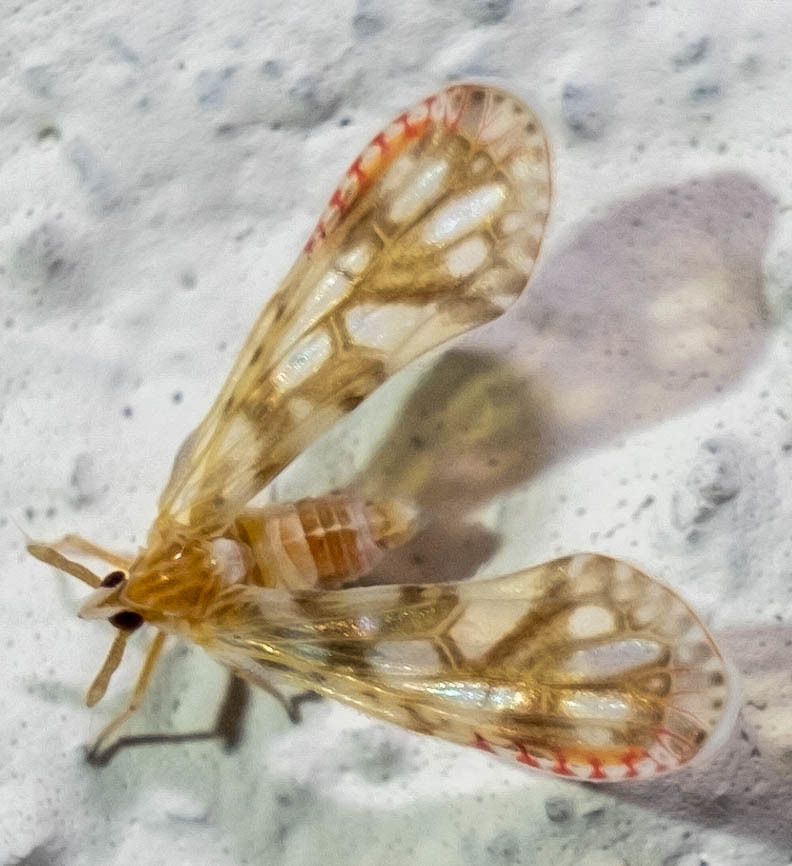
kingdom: Animalia
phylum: Arthropoda
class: Insecta
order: Hemiptera
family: Derbidae
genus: Anotia
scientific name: Anotia kirkaldyi
